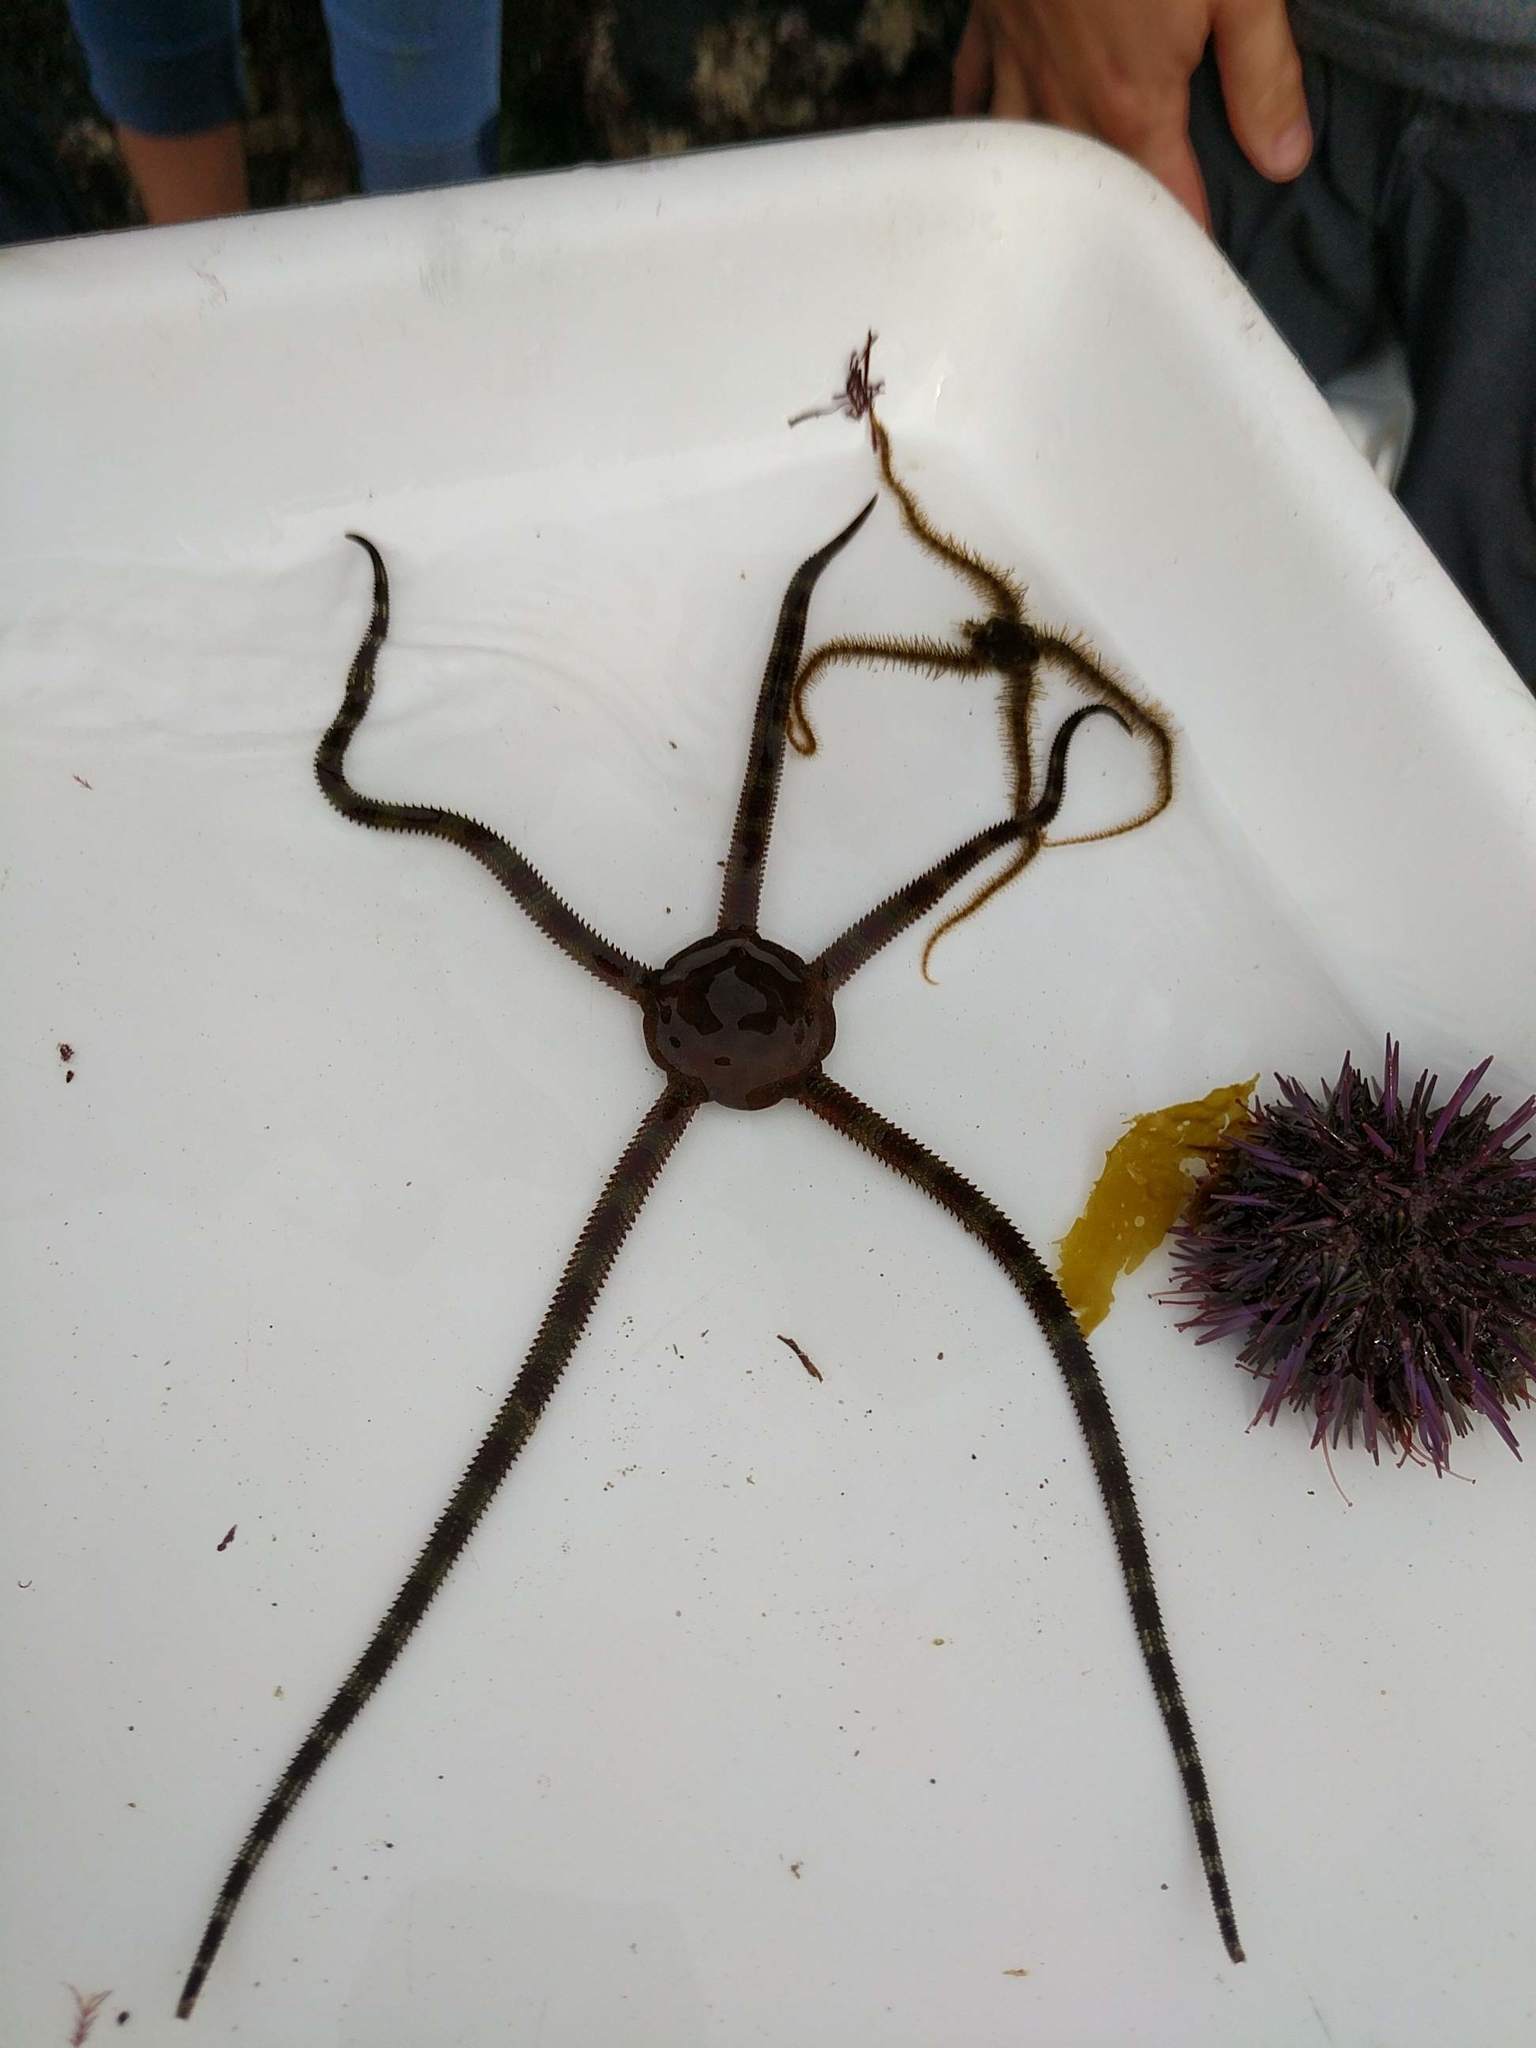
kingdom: Animalia
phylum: Echinodermata
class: Ophiuroidea
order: Ophiacanthida
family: Ophiodermatidae
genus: Ophioderma
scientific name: Ophioderma panamense
